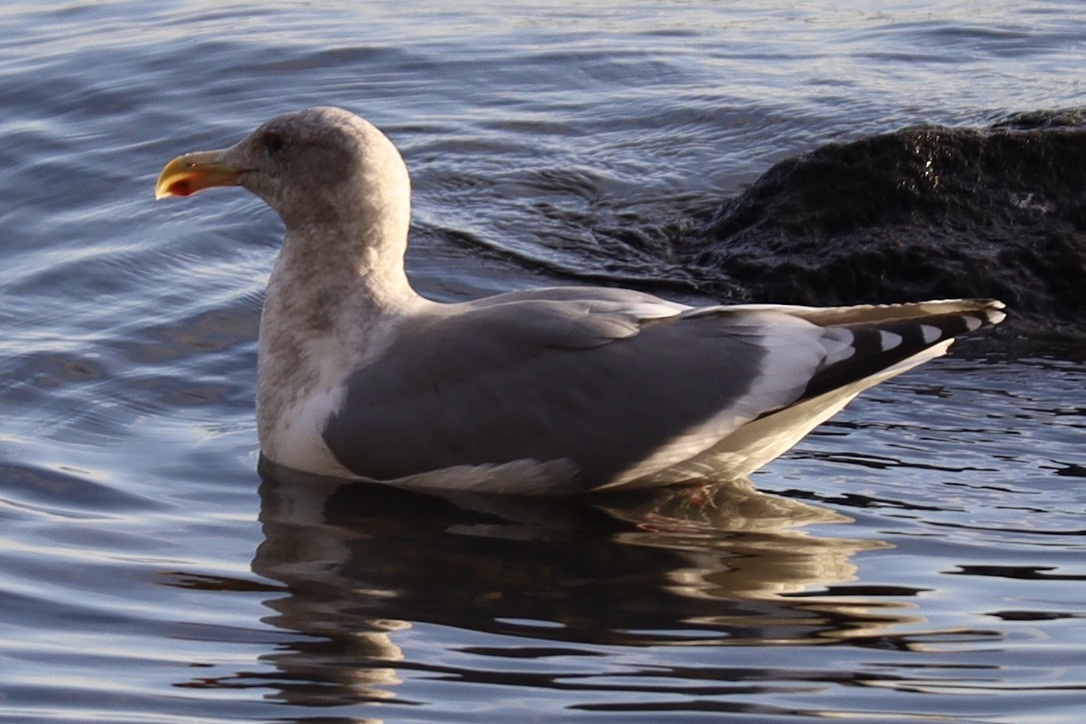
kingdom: Animalia
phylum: Chordata
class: Aves
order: Charadriiformes
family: Laridae
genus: Larus
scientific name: Larus
